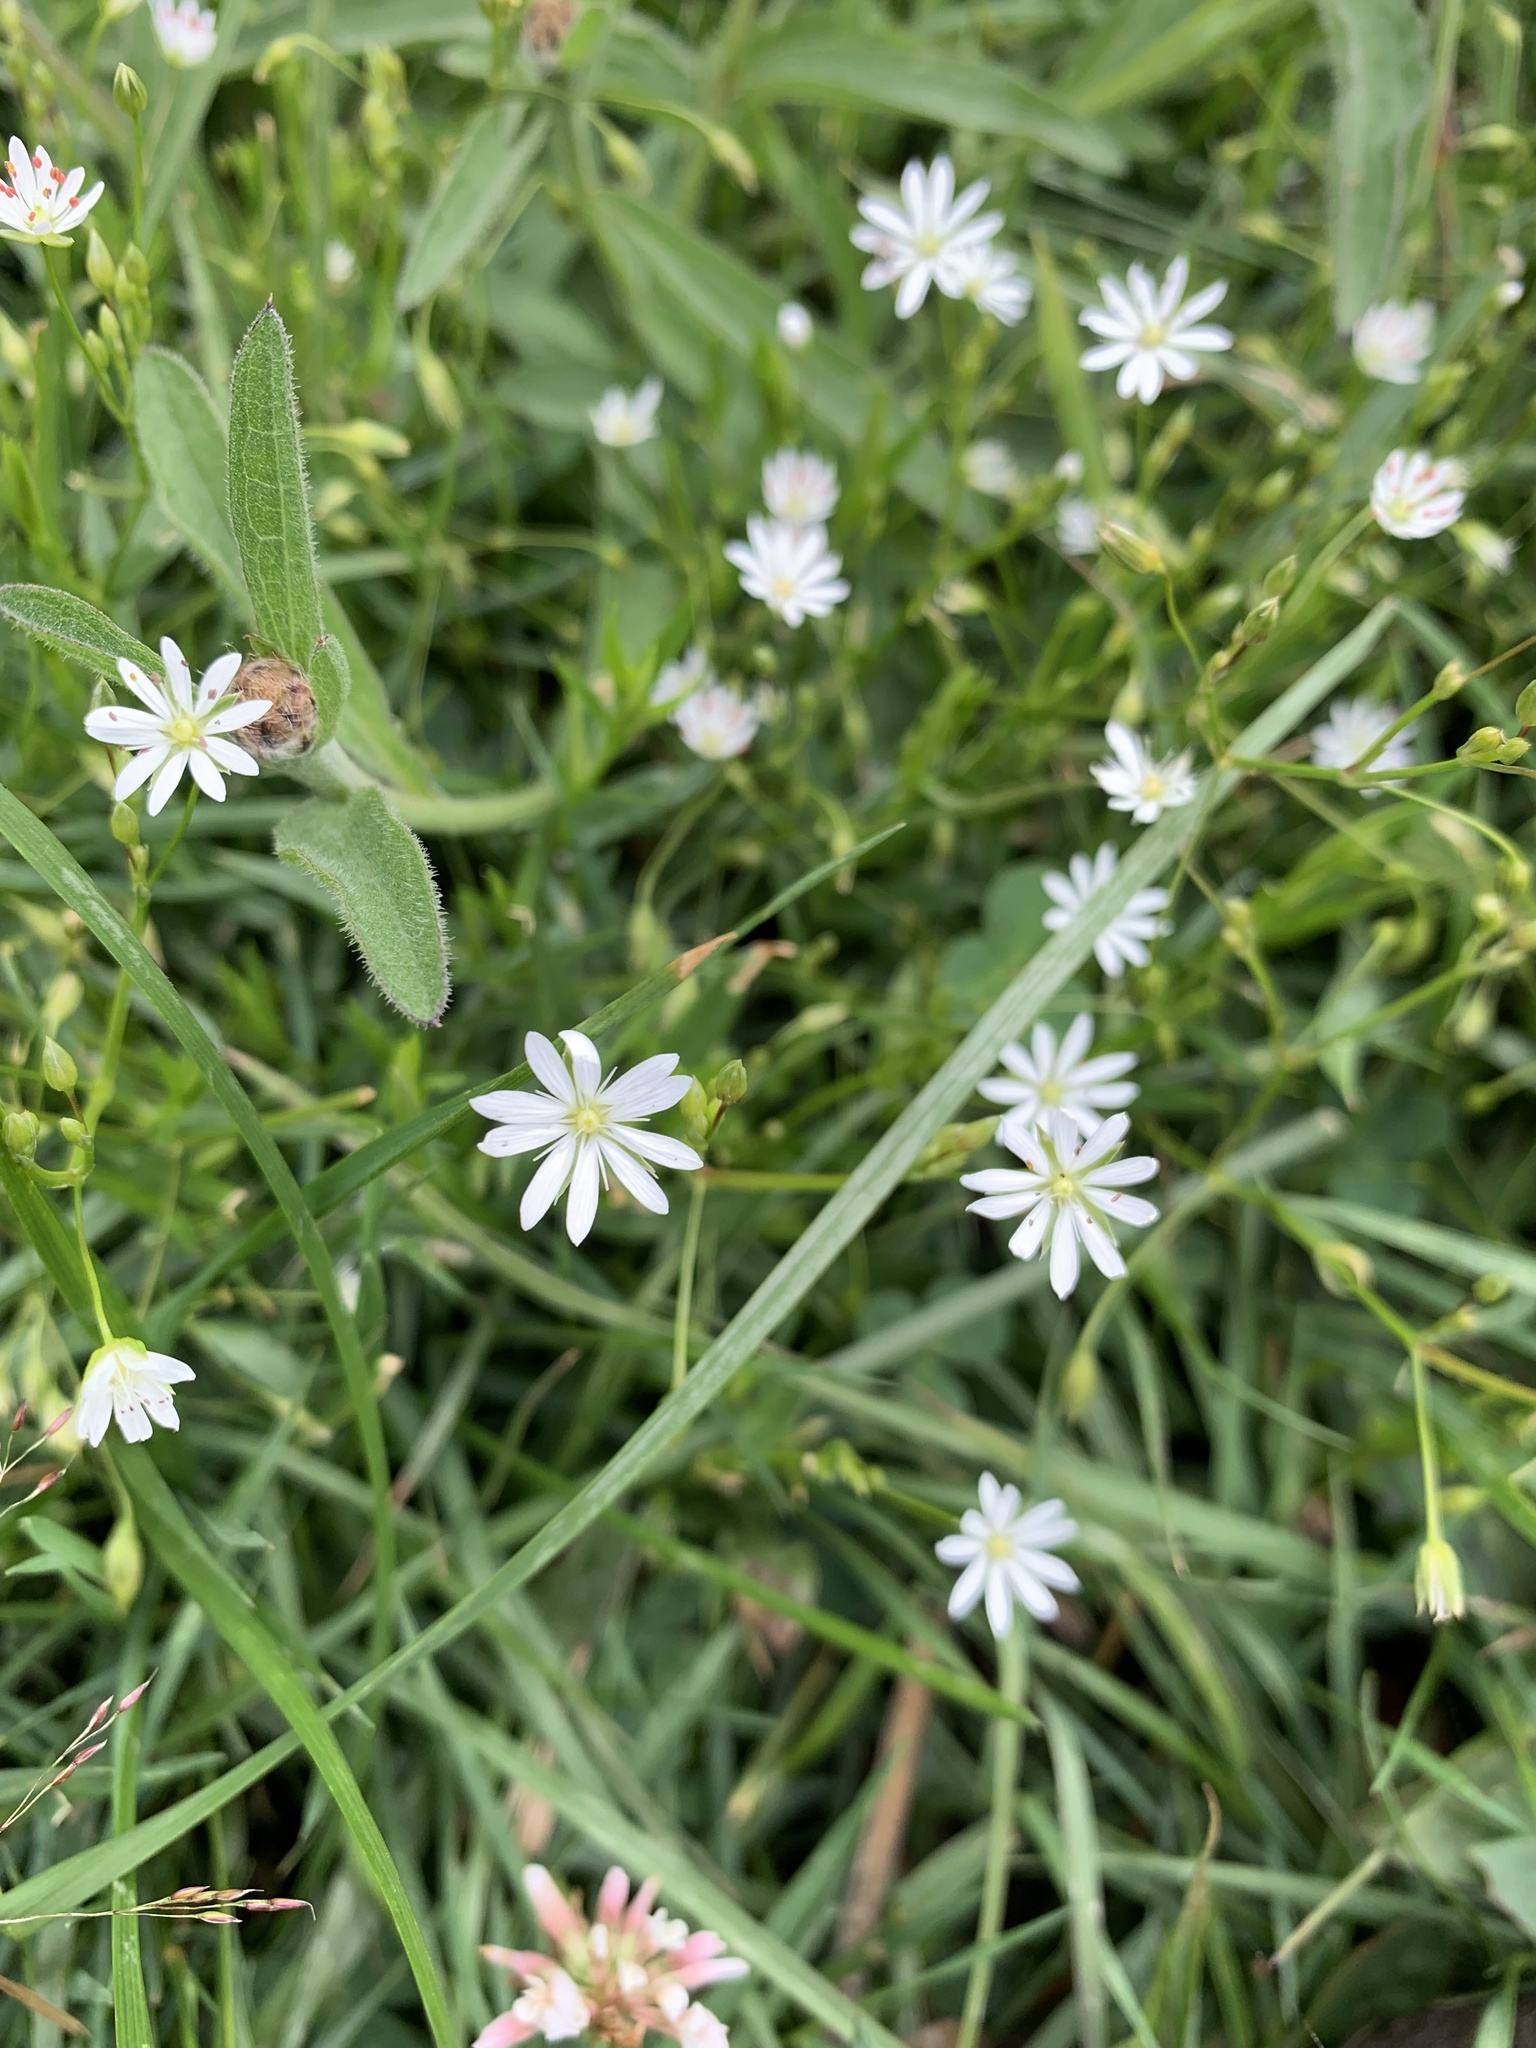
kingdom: Plantae
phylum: Tracheophyta
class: Magnoliopsida
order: Caryophyllales
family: Caryophyllaceae
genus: Stellaria
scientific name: Stellaria graminea
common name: Grass-like starwort
